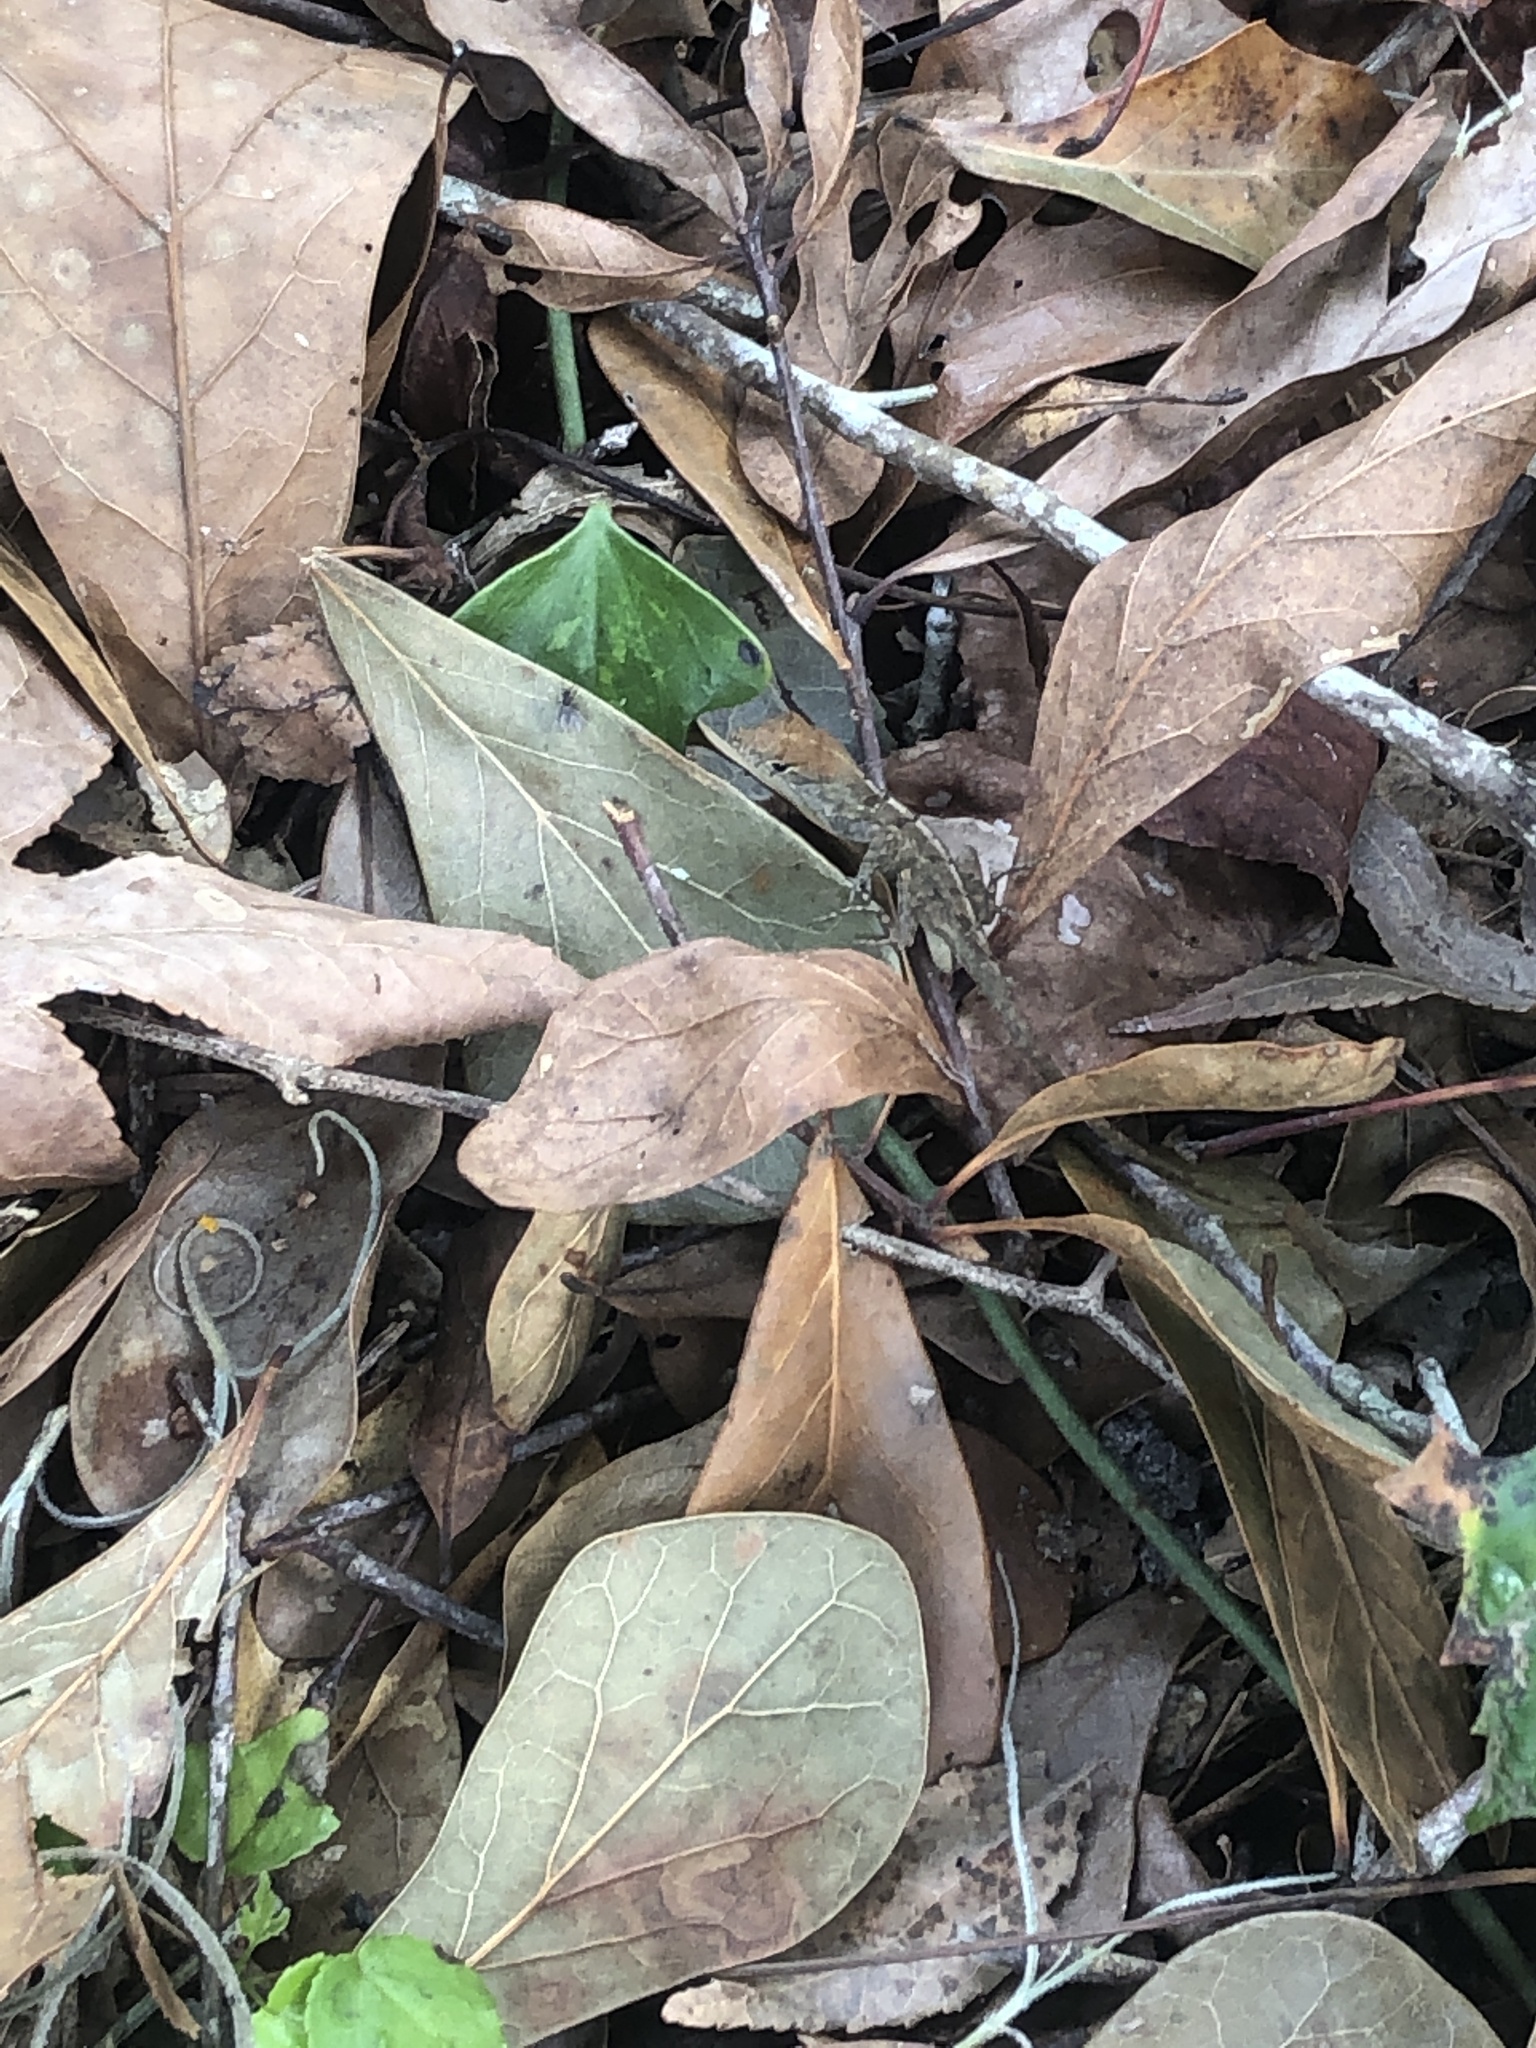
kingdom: Animalia
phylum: Chordata
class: Squamata
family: Dactyloidae
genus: Anolis
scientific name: Anolis sagrei
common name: Brown anole
